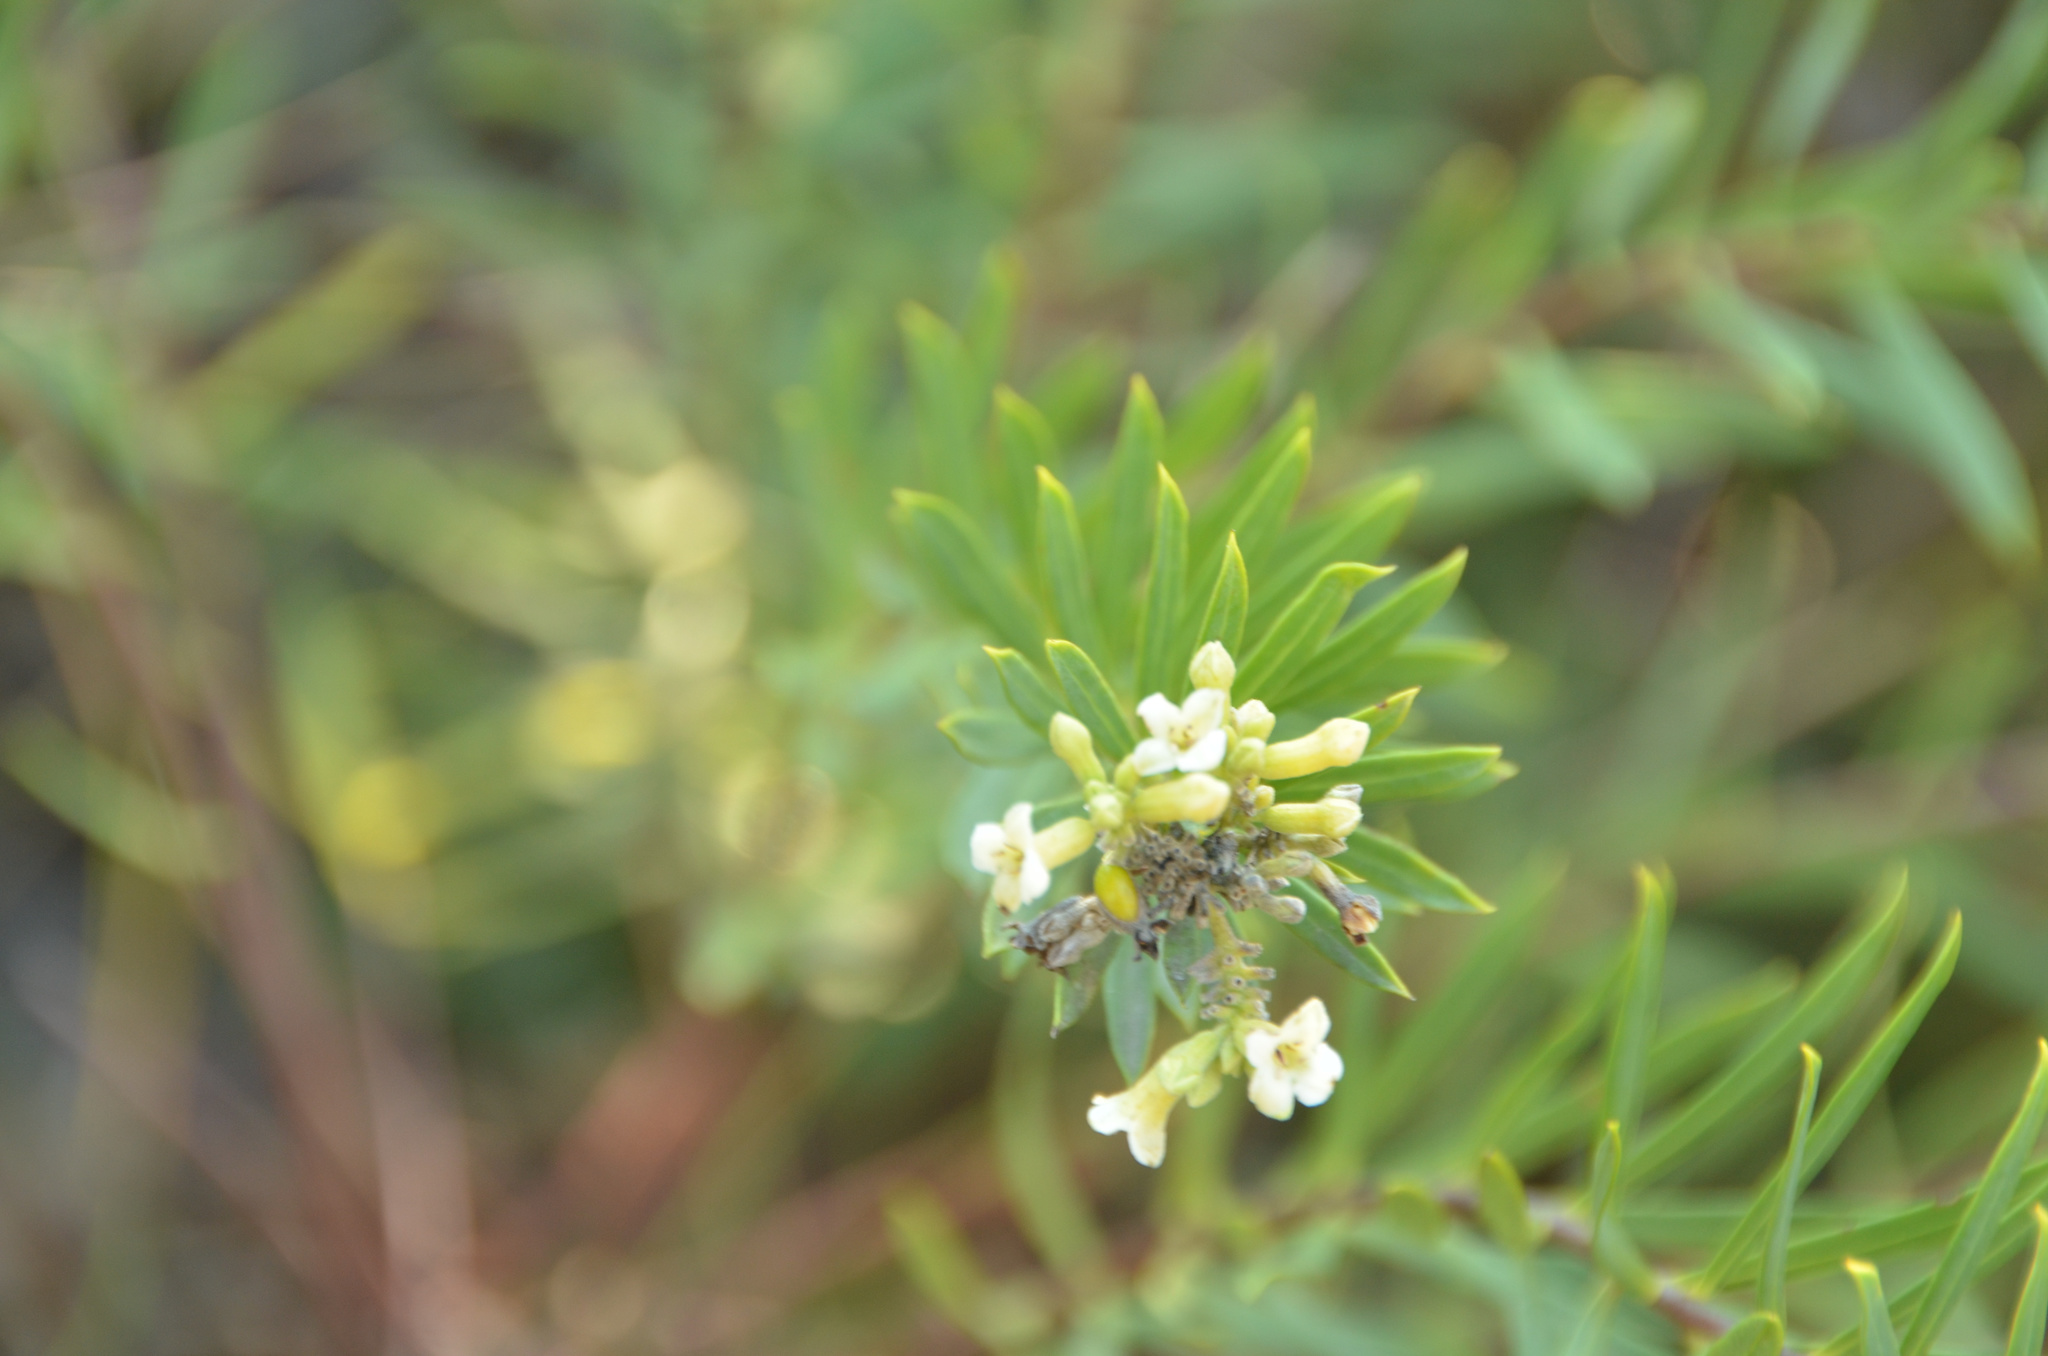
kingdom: Plantae
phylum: Tracheophyta
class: Magnoliopsida
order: Malvales
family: Thymelaeaceae
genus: Daphne
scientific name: Daphne gnidium
